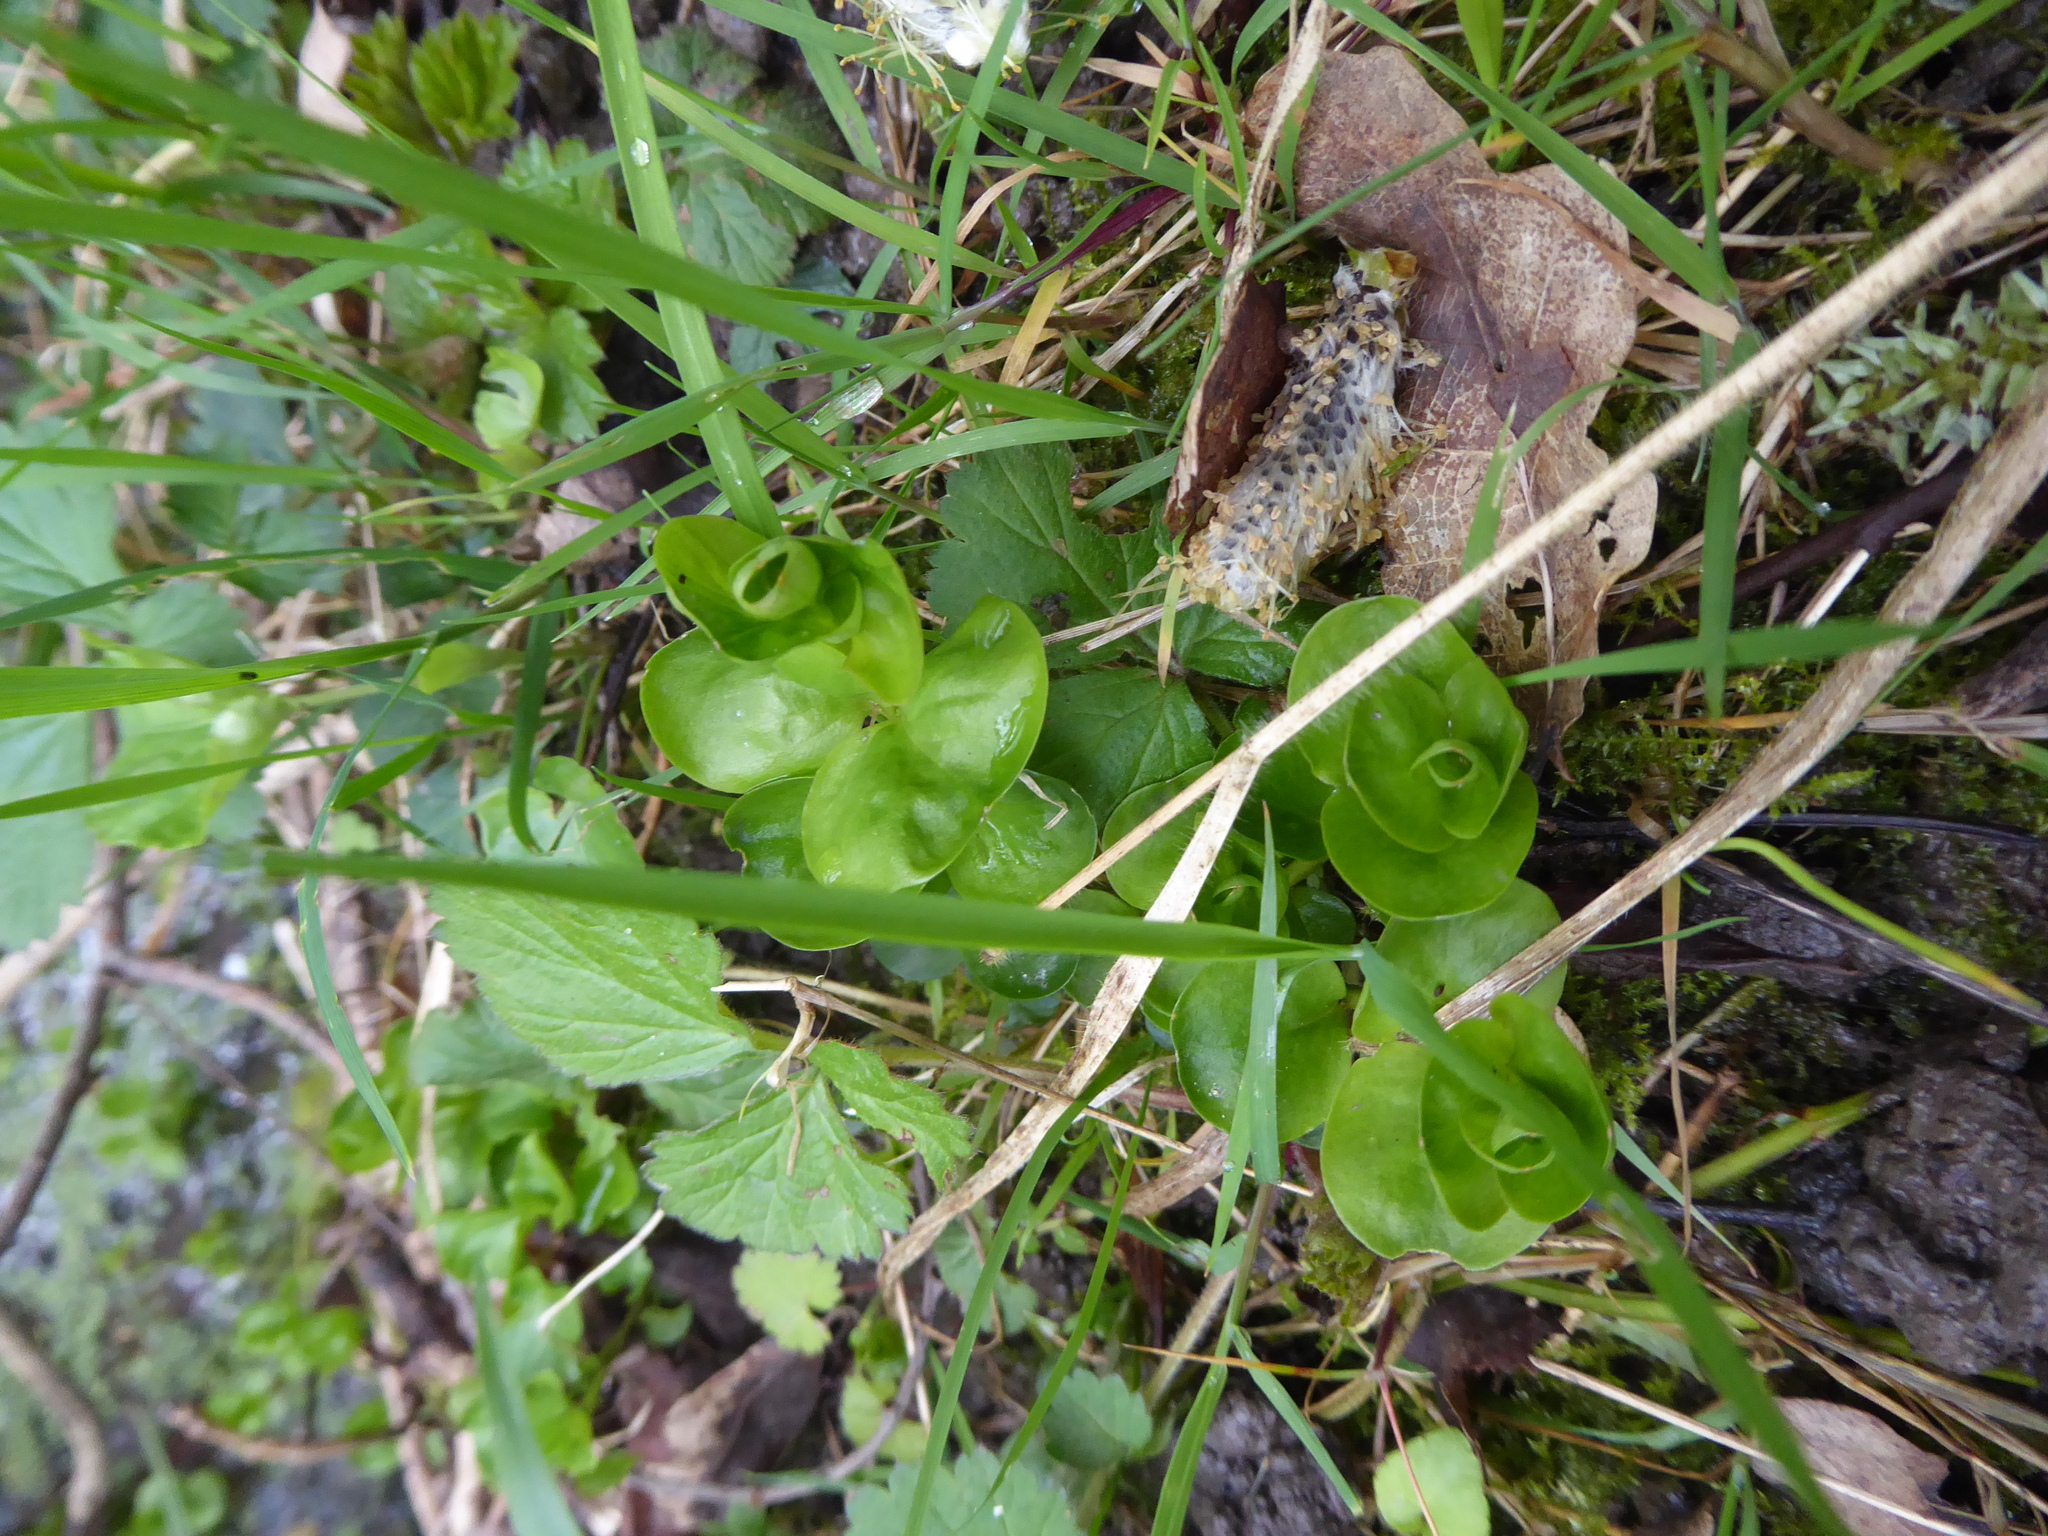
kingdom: Plantae
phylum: Tracheophyta
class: Magnoliopsida
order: Ericales
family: Primulaceae
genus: Lysimachia
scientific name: Lysimachia nummularia
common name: Moneywort
